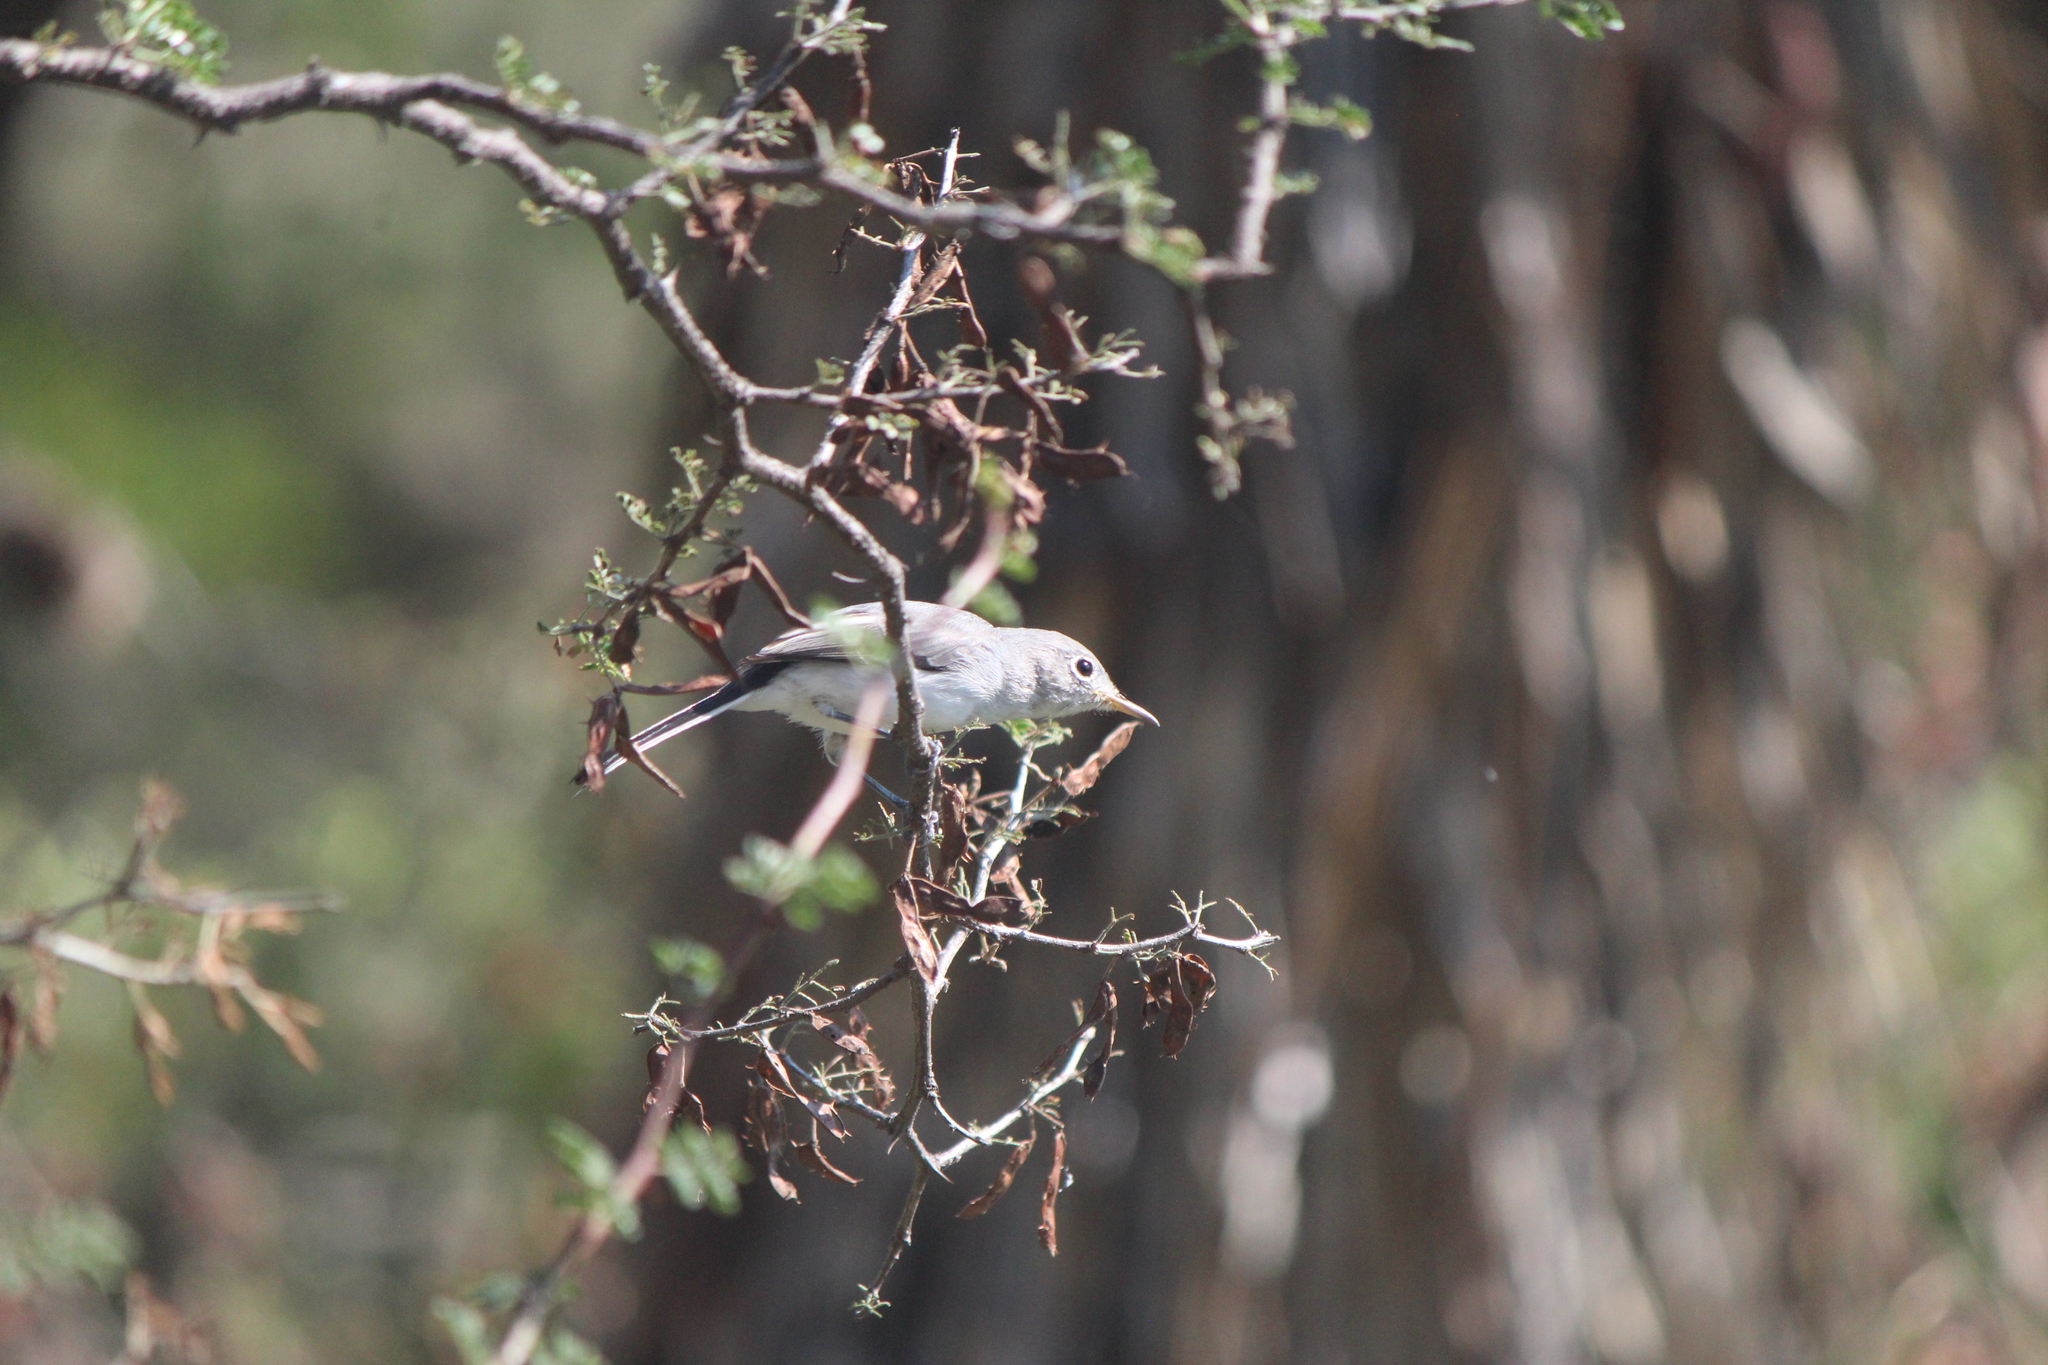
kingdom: Animalia
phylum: Chordata
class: Aves
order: Passeriformes
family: Polioptilidae
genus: Polioptila
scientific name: Polioptila caerulea
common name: Blue-gray gnatcatcher
